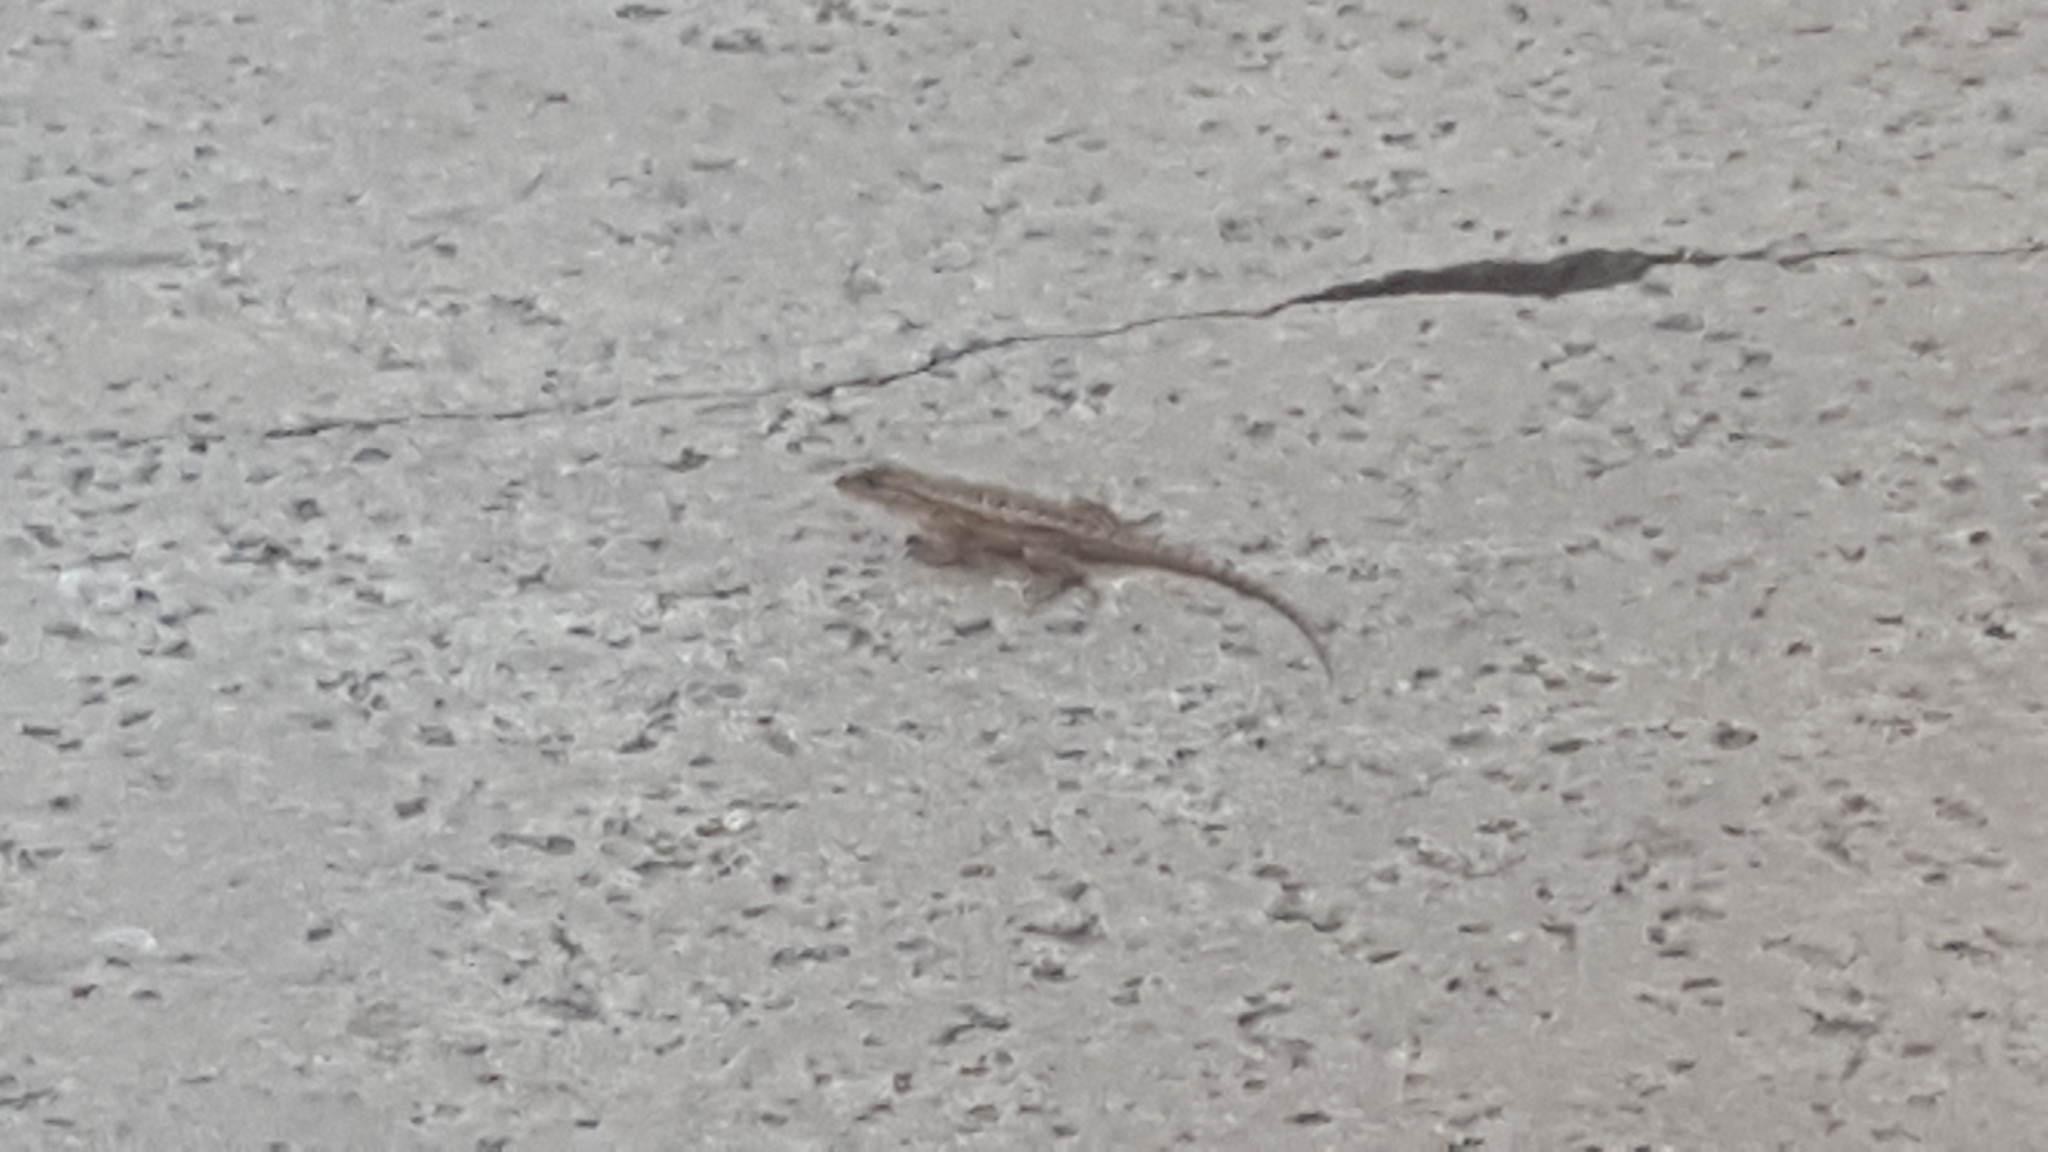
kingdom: Animalia
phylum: Chordata
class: Squamata
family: Phrynosomatidae
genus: Sceloporus
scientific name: Sceloporus occidentalis
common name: Western fence lizard
